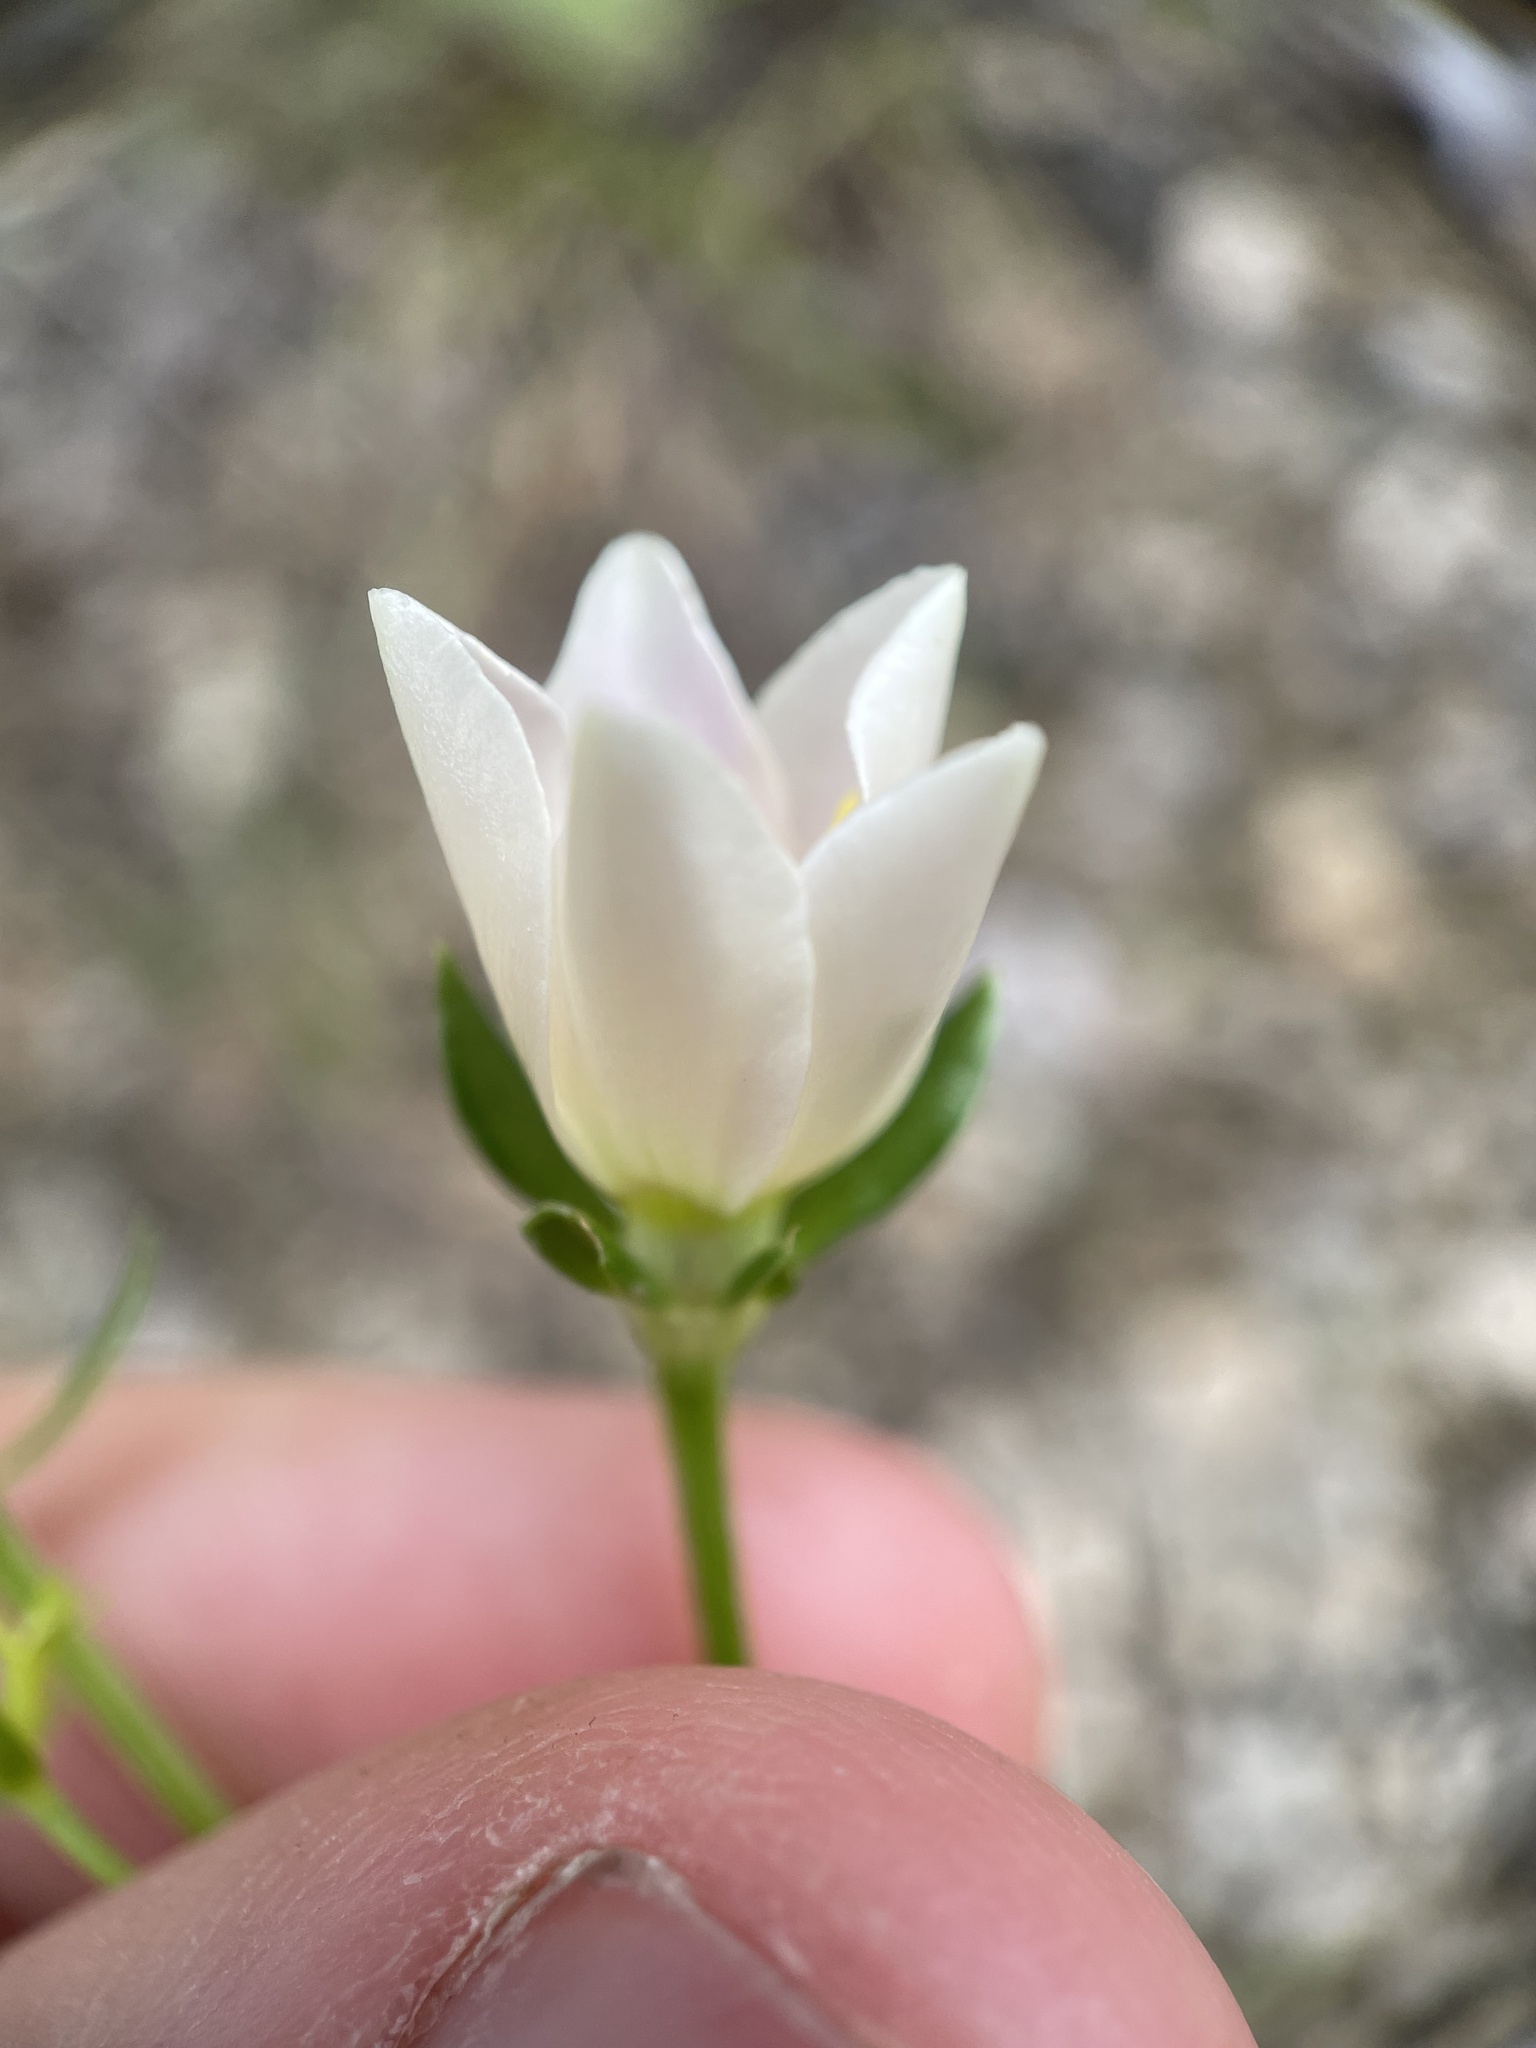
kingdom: Plantae
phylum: Tracheophyta
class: Magnoliopsida
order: Gentianales
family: Gentianaceae
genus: Sabatia
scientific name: Sabatia angularis
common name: Rose-pink
